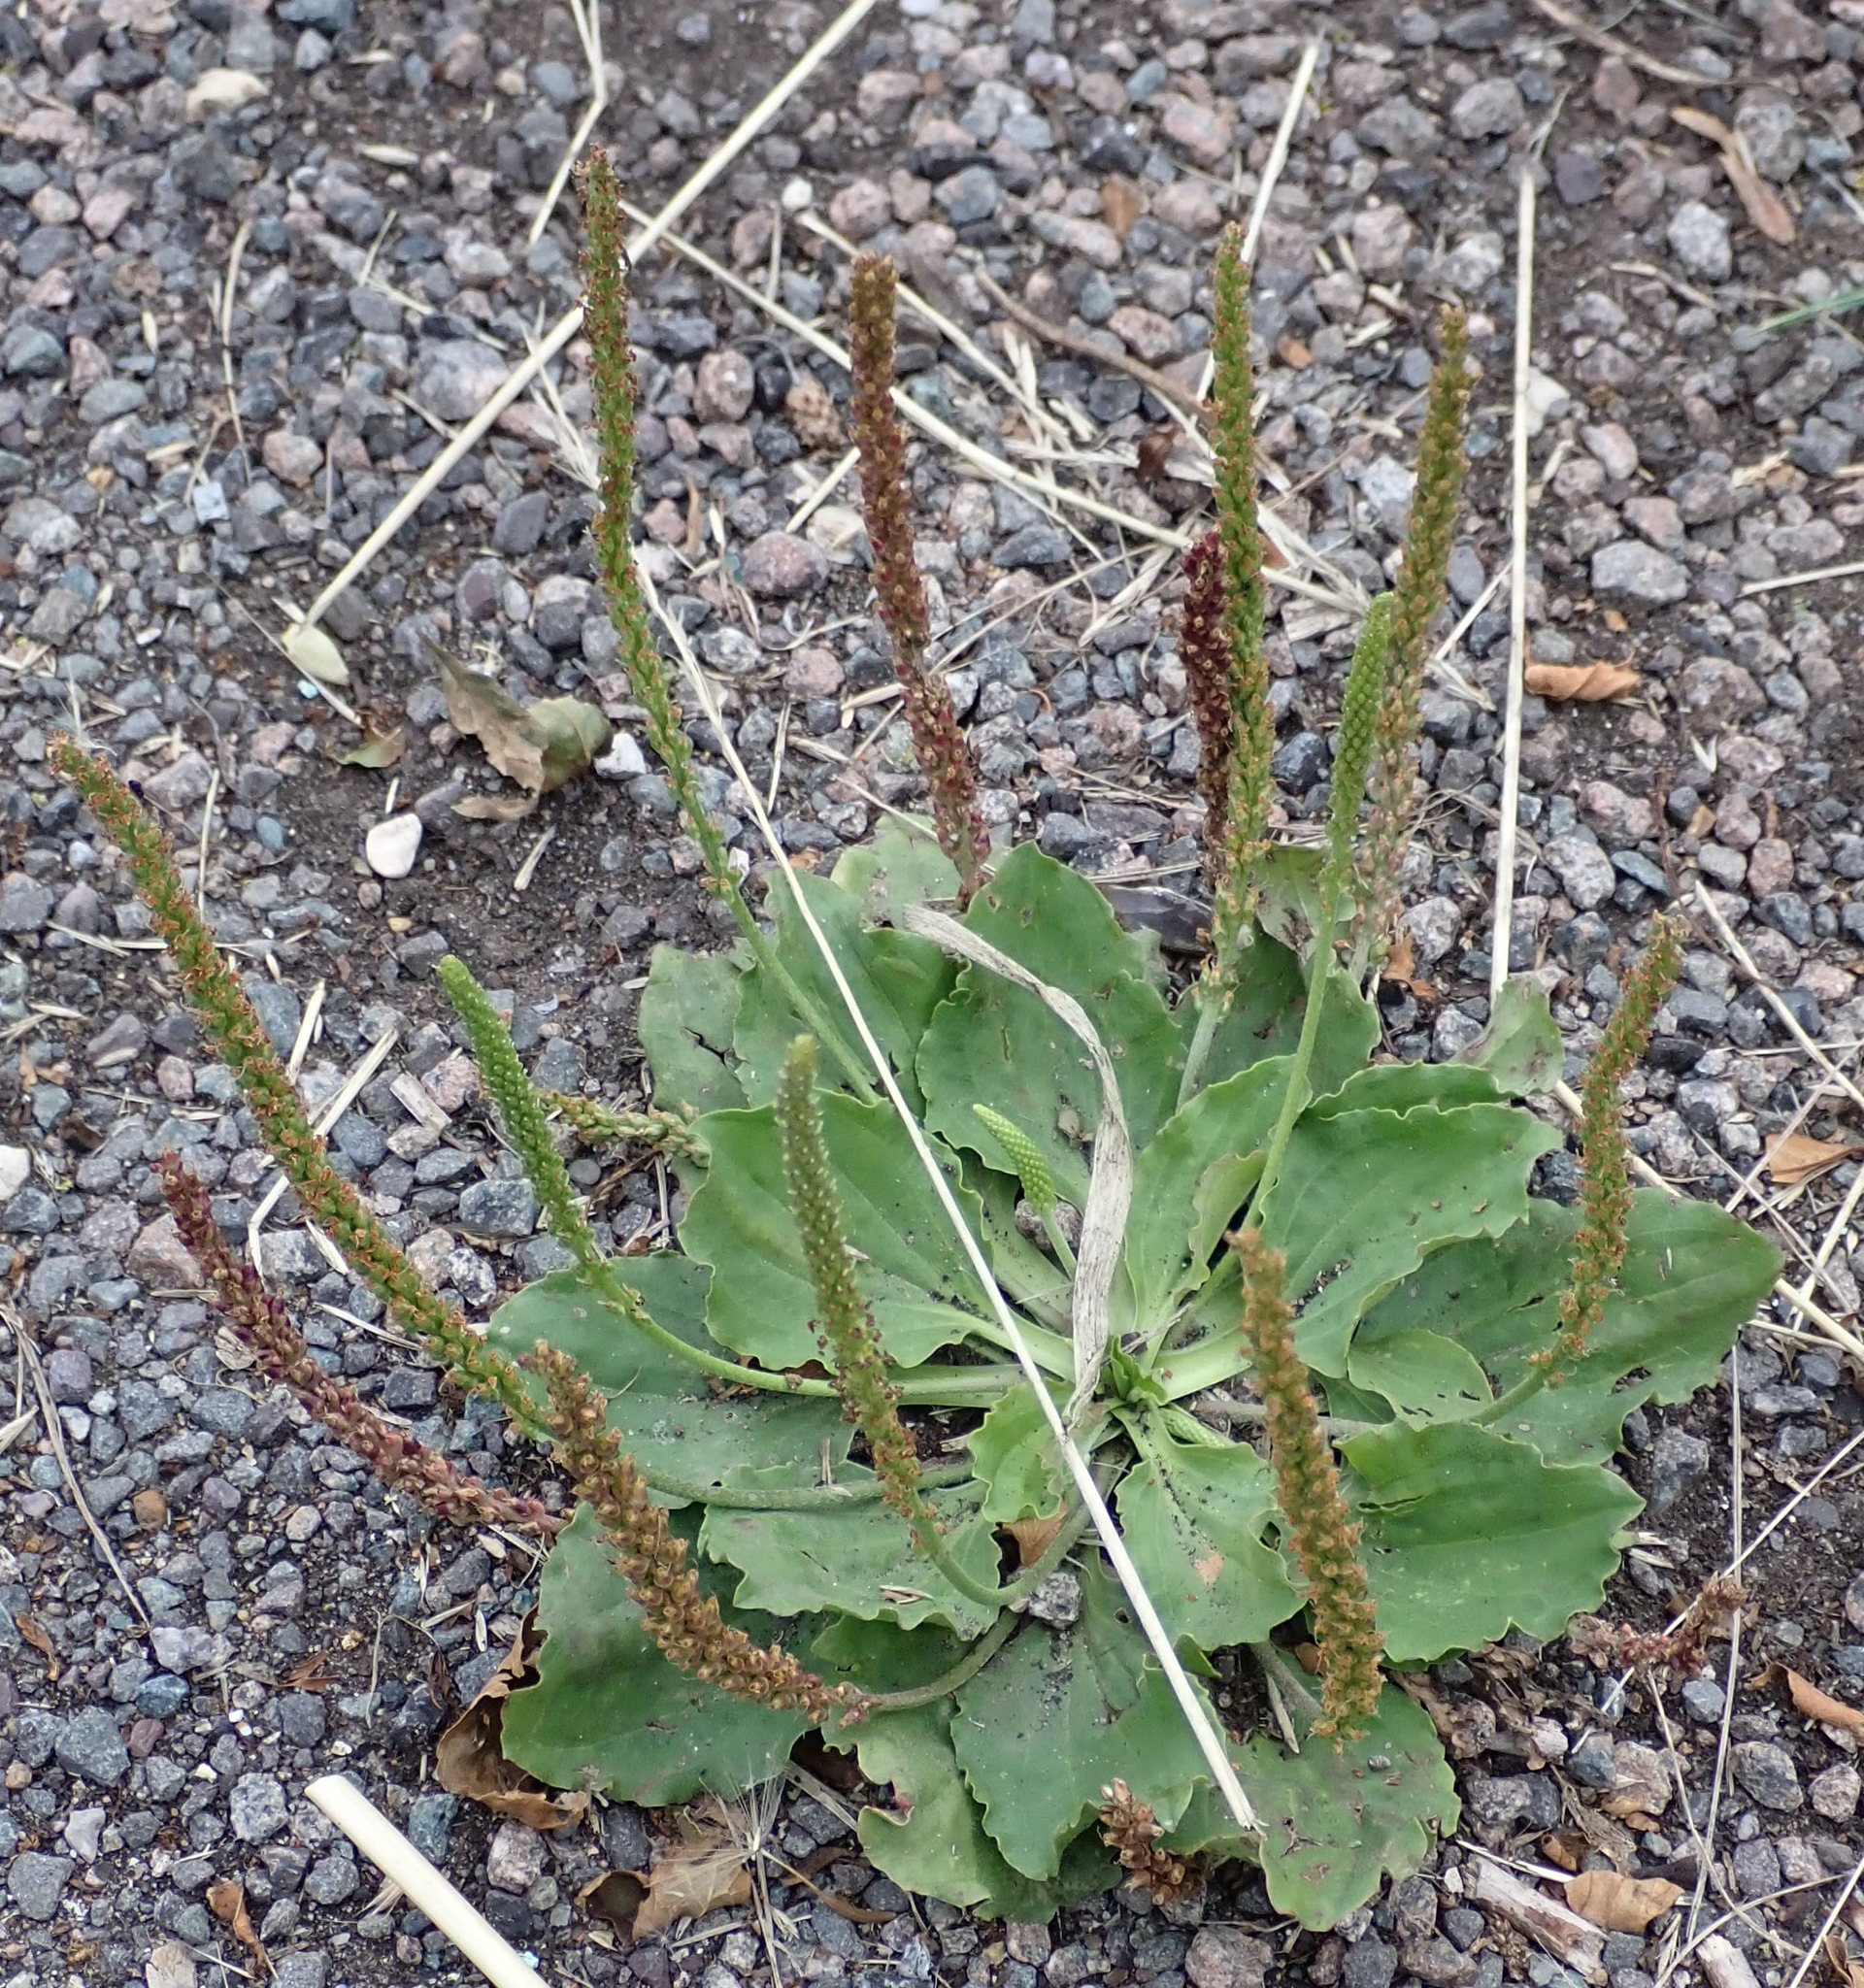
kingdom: Plantae
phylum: Tracheophyta
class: Magnoliopsida
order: Lamiales
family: Plantaginaceae
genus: Plantago
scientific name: Plantago major
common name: Common plantain
